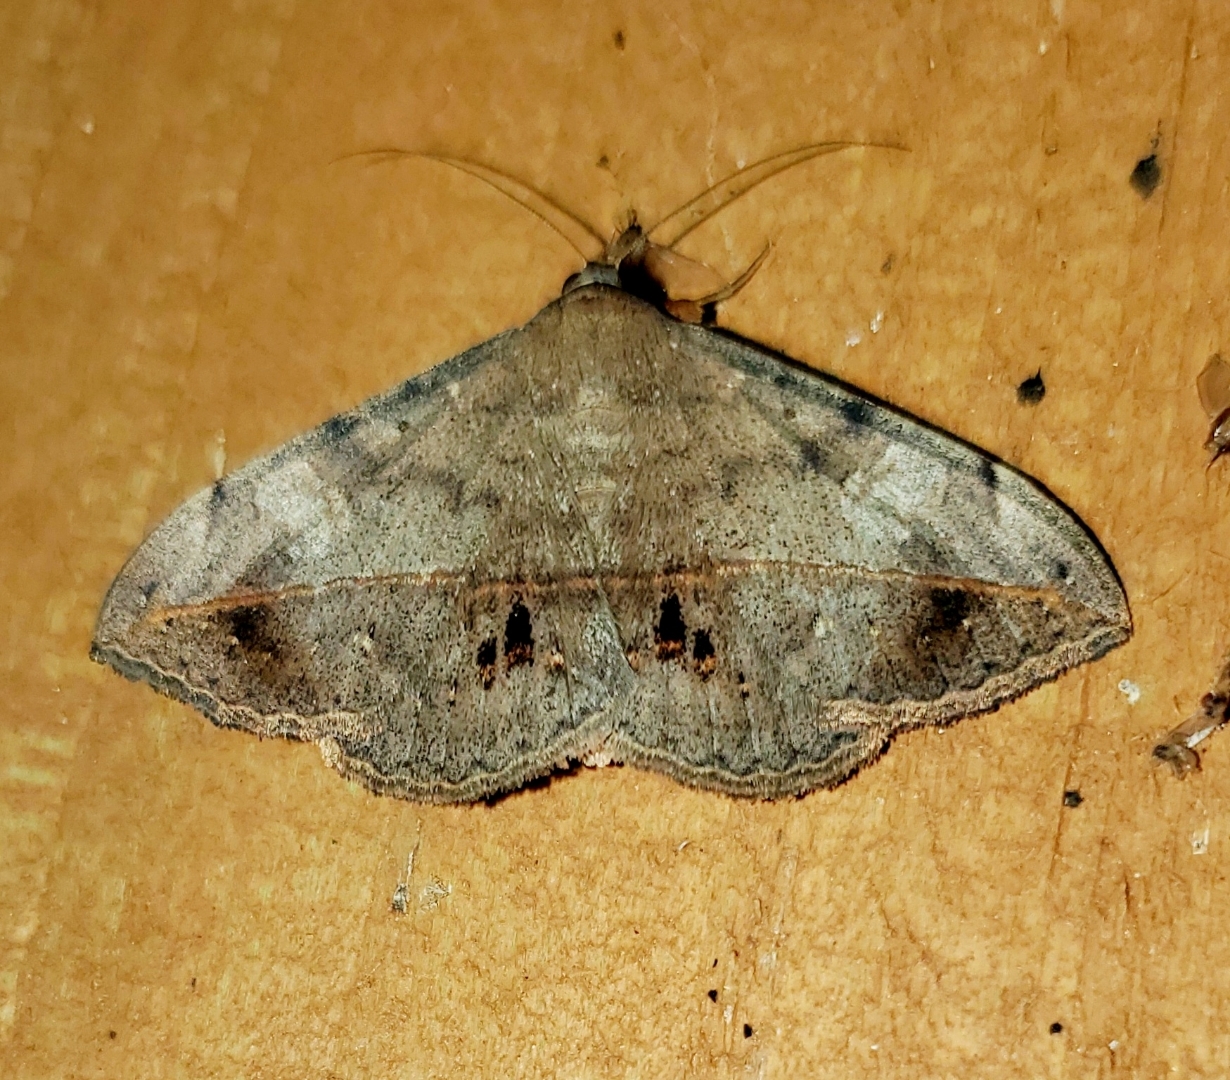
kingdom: Animalia
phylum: Arthropoda
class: Insecta
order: Lepidoptera
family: Erebidae
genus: Anticarsia
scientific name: Anticarsia gemmatalis
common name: Cutworm moth
